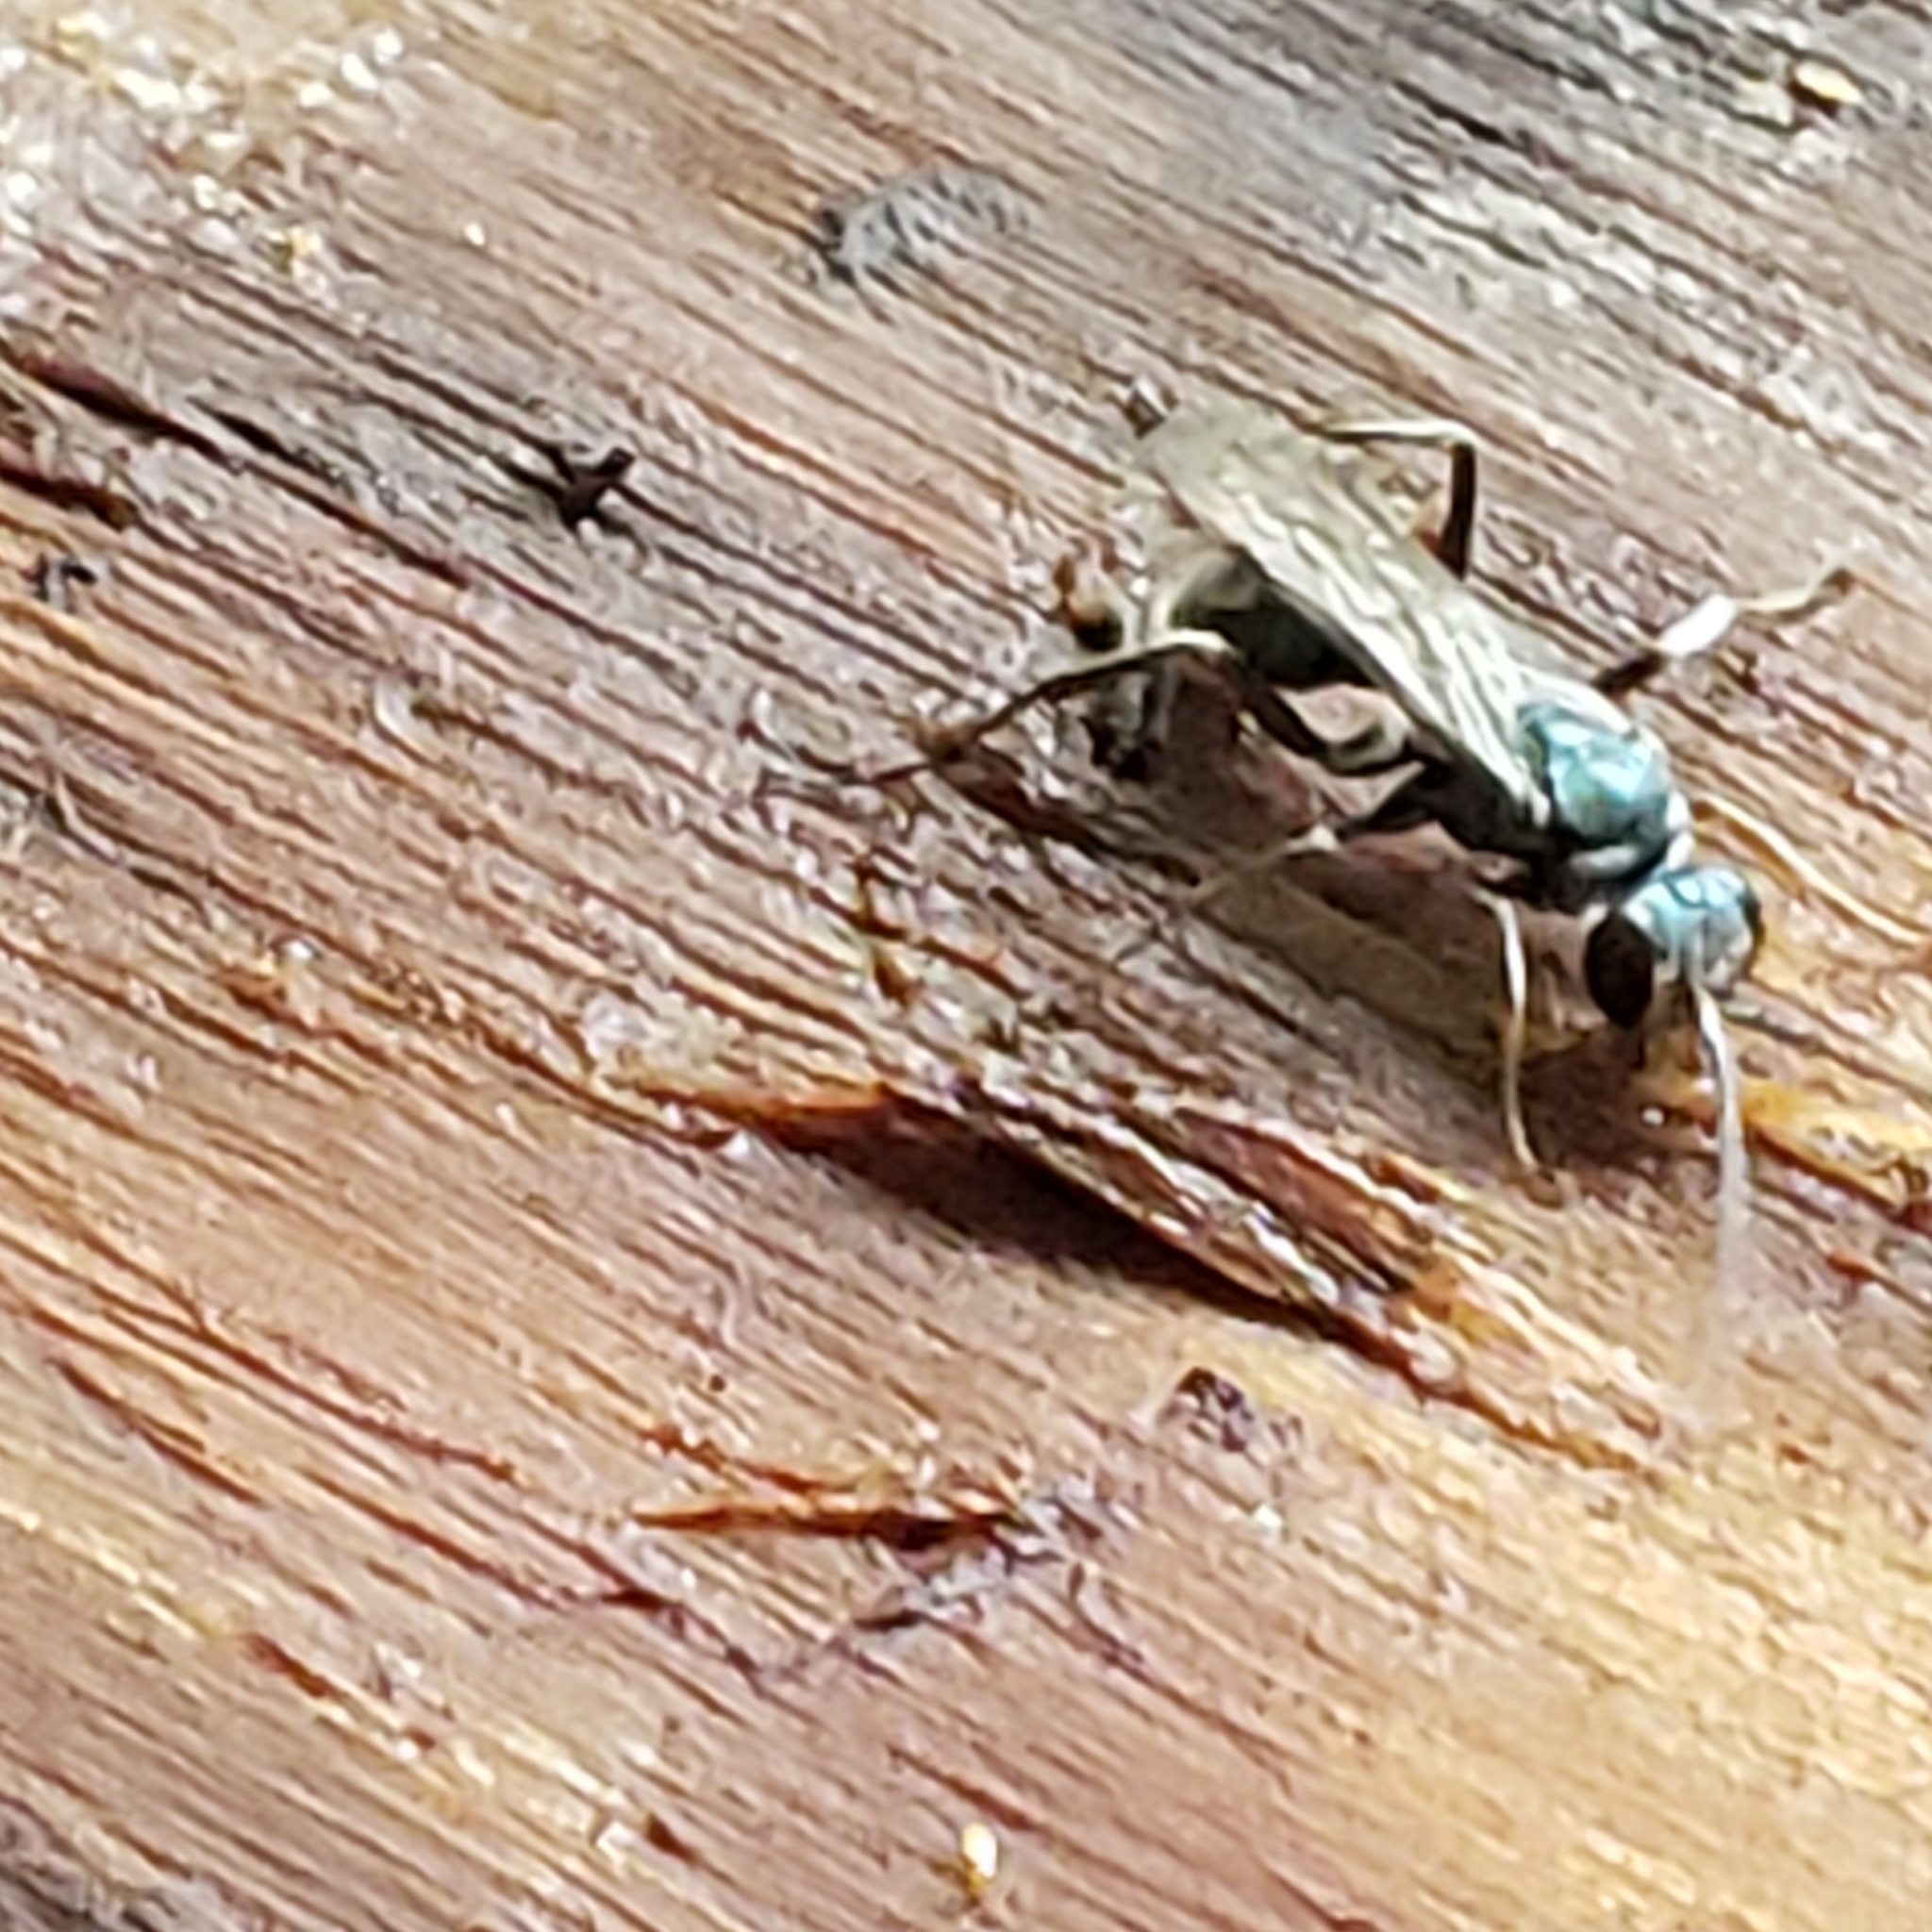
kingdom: Animalia
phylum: Arthropoda
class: Insecta
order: Hymenoptera
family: Pompilidae
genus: Auplopus
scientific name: Auplopus
